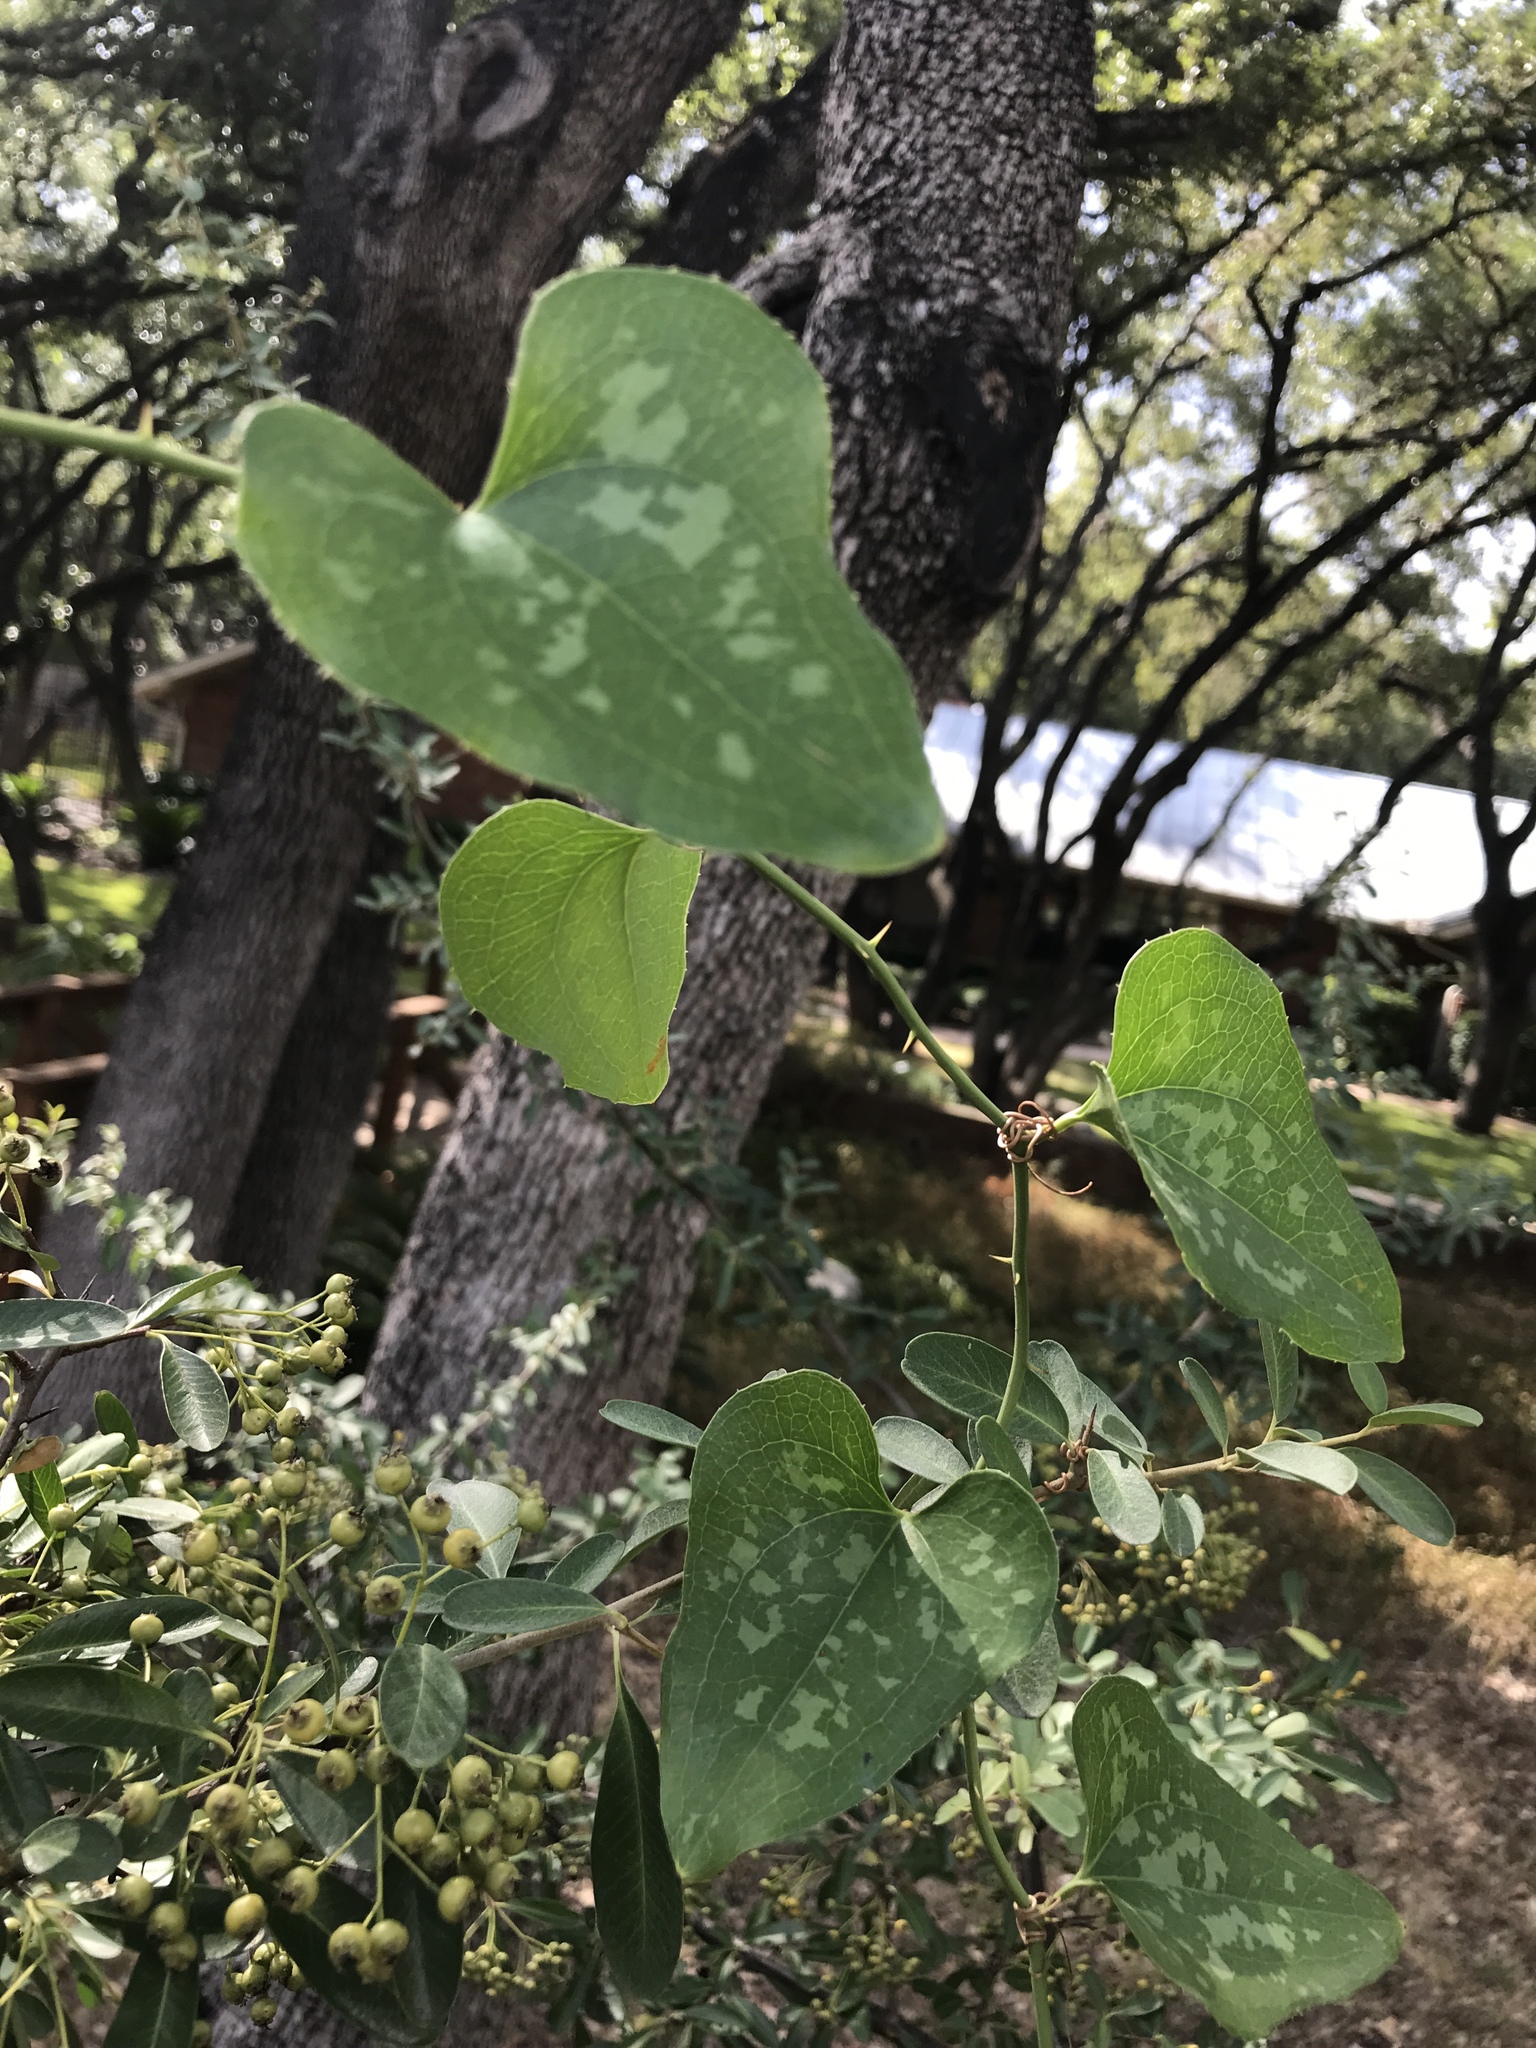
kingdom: Plantae
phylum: Tracheophyta
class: Liliopsida
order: Liliales
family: Smilacaceae
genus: Smilax
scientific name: Smilax bona-nox
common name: Catbrier
